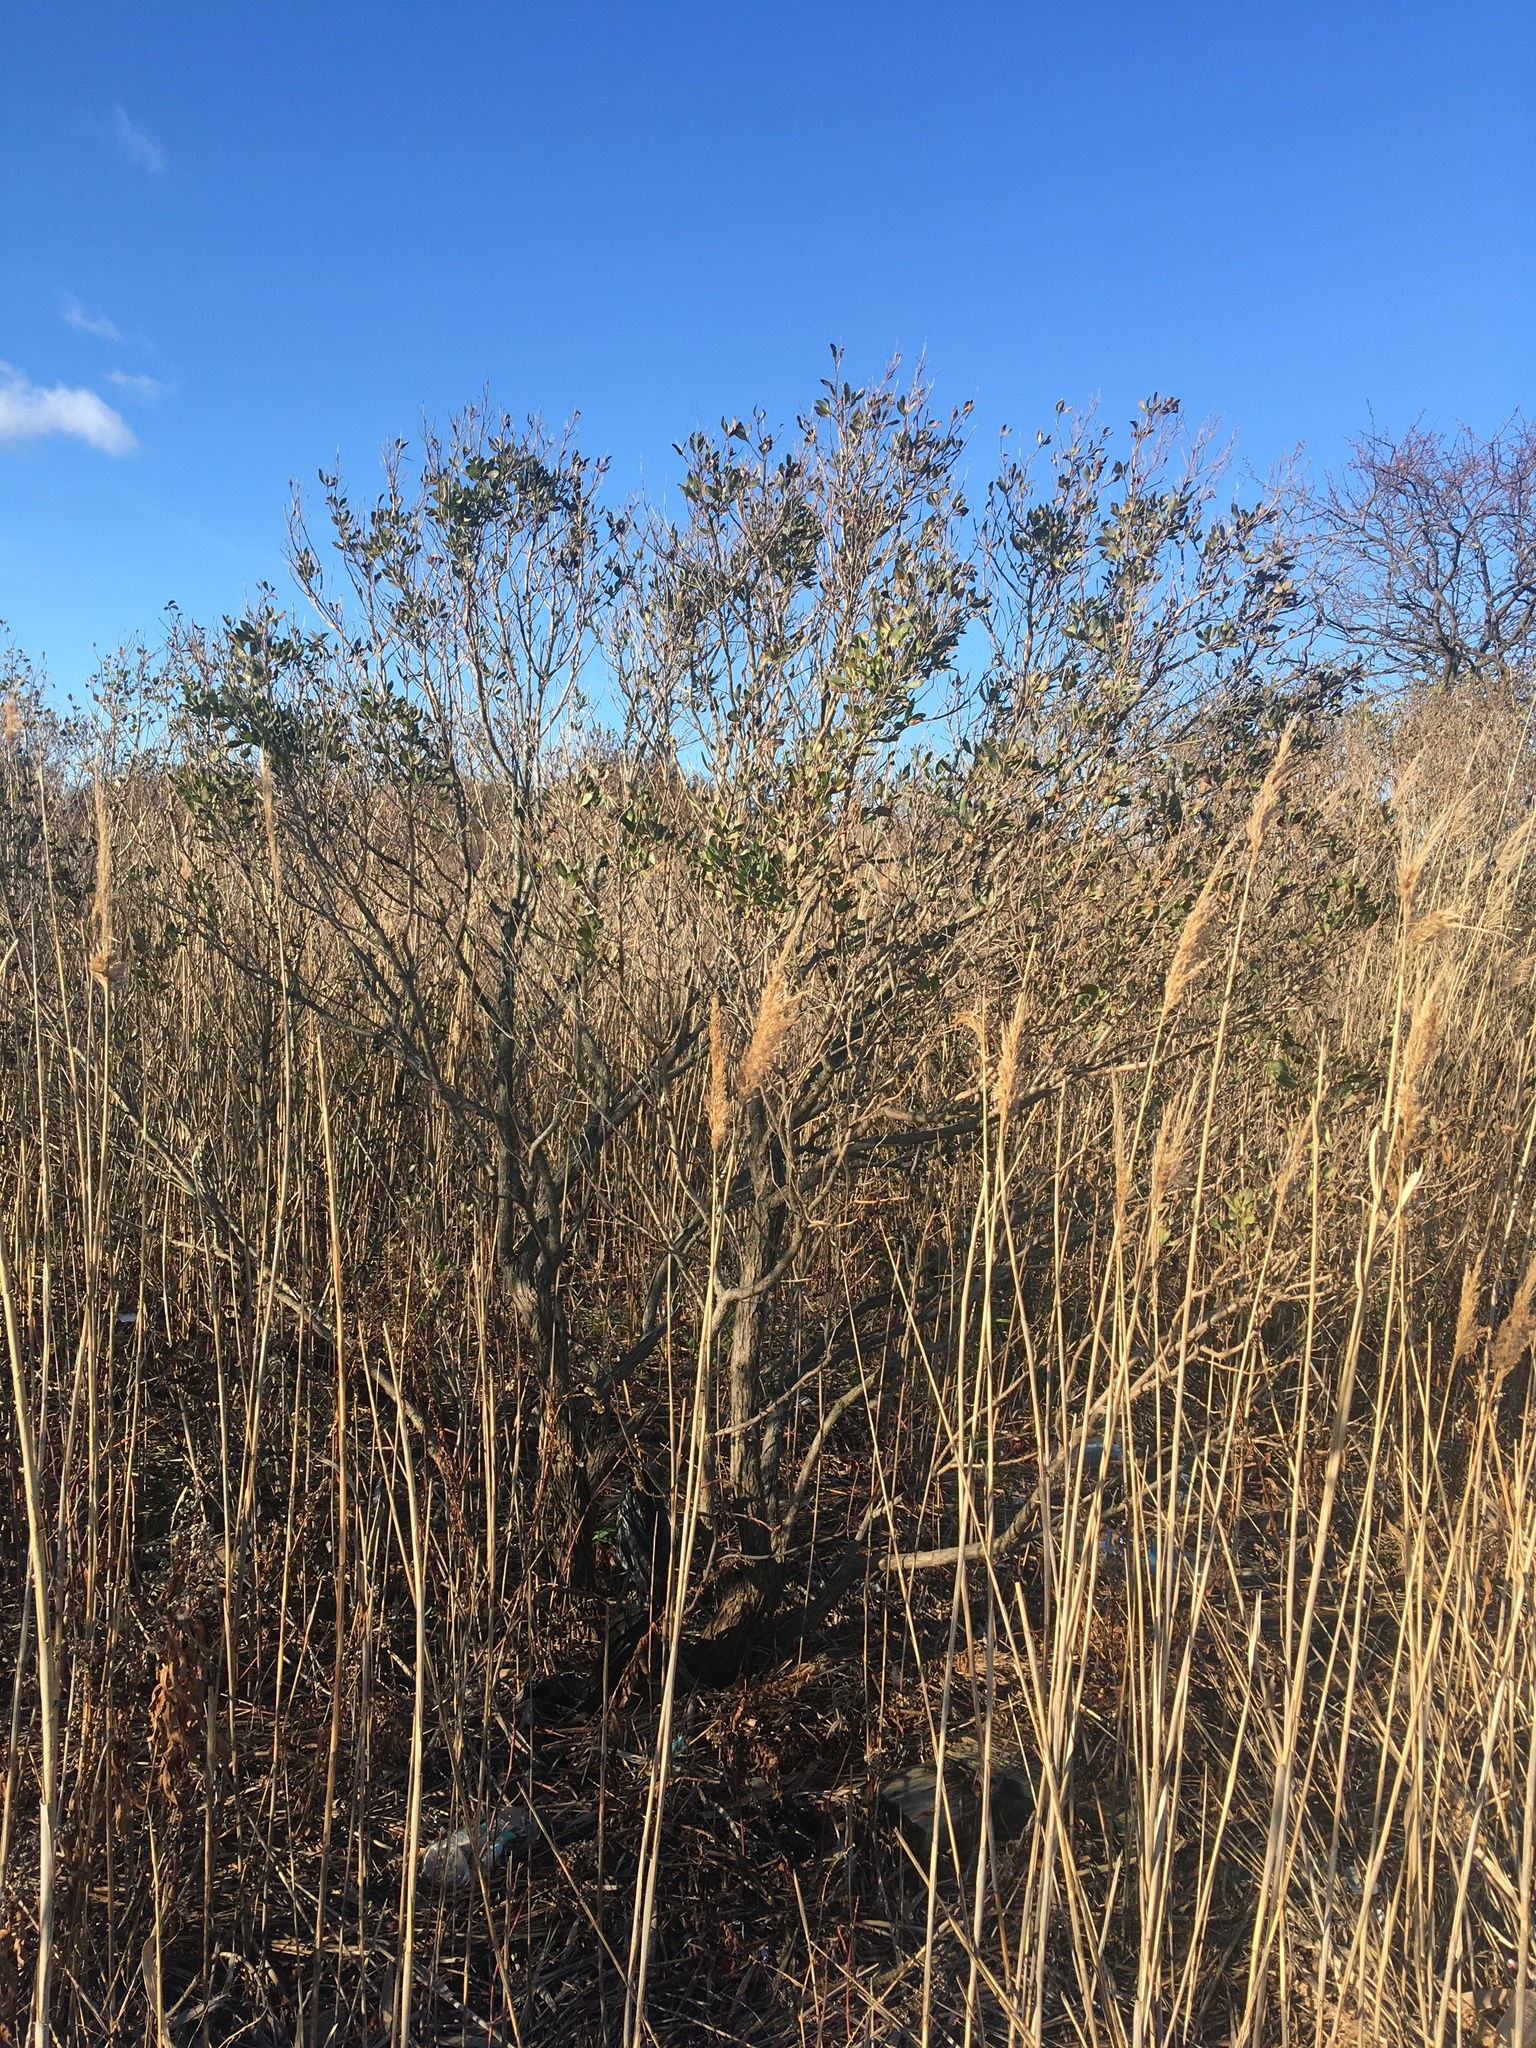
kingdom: Plantae
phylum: Tracheophyta
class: Magnoliopsida
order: Asterales
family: Asteraceae
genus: Baccharis
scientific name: Baccharis halimifolia
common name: Eastern baccharis
